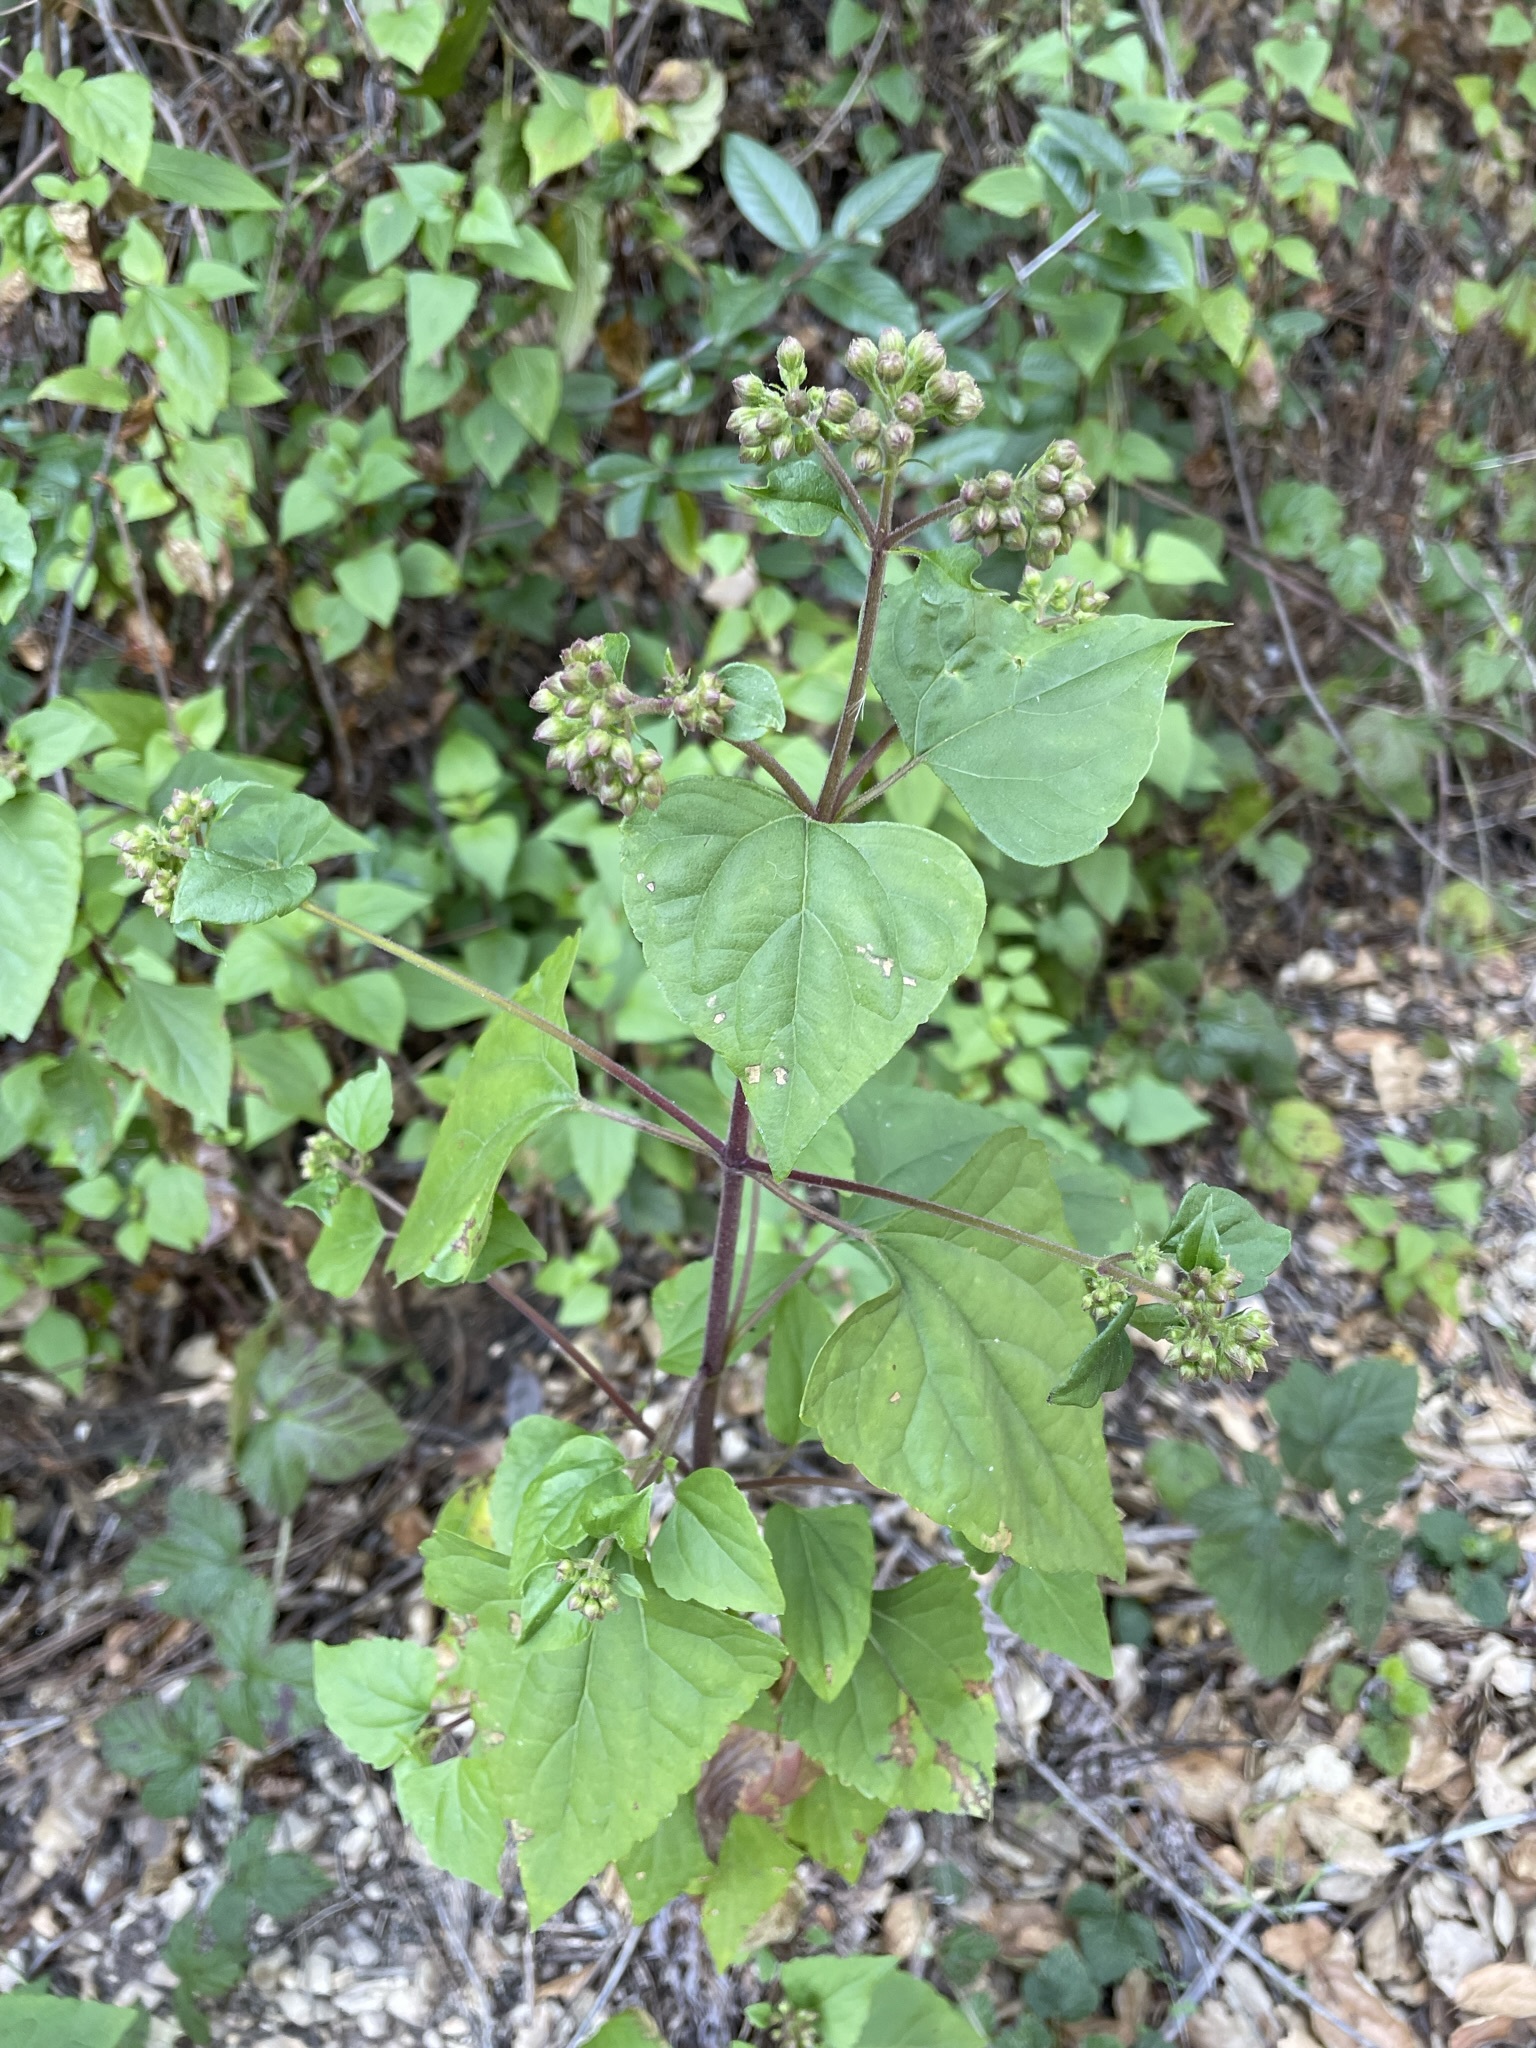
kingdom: Plantae
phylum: Tracheophyta
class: Magnoliopsida
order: Asterales
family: Asteraceae
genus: Ageratina
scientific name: Ageratina adenophora
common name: Sticky snakeroot
